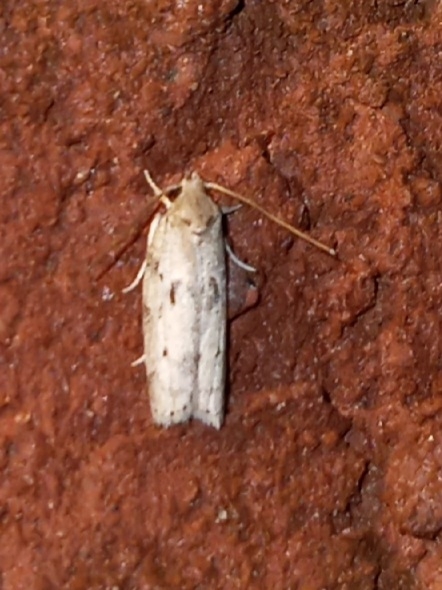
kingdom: Animalia
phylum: Arthropoda
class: Insecta
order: Lepidoptera
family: Depressariidae
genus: Antaeotricha
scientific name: Antaeotricha humilis
